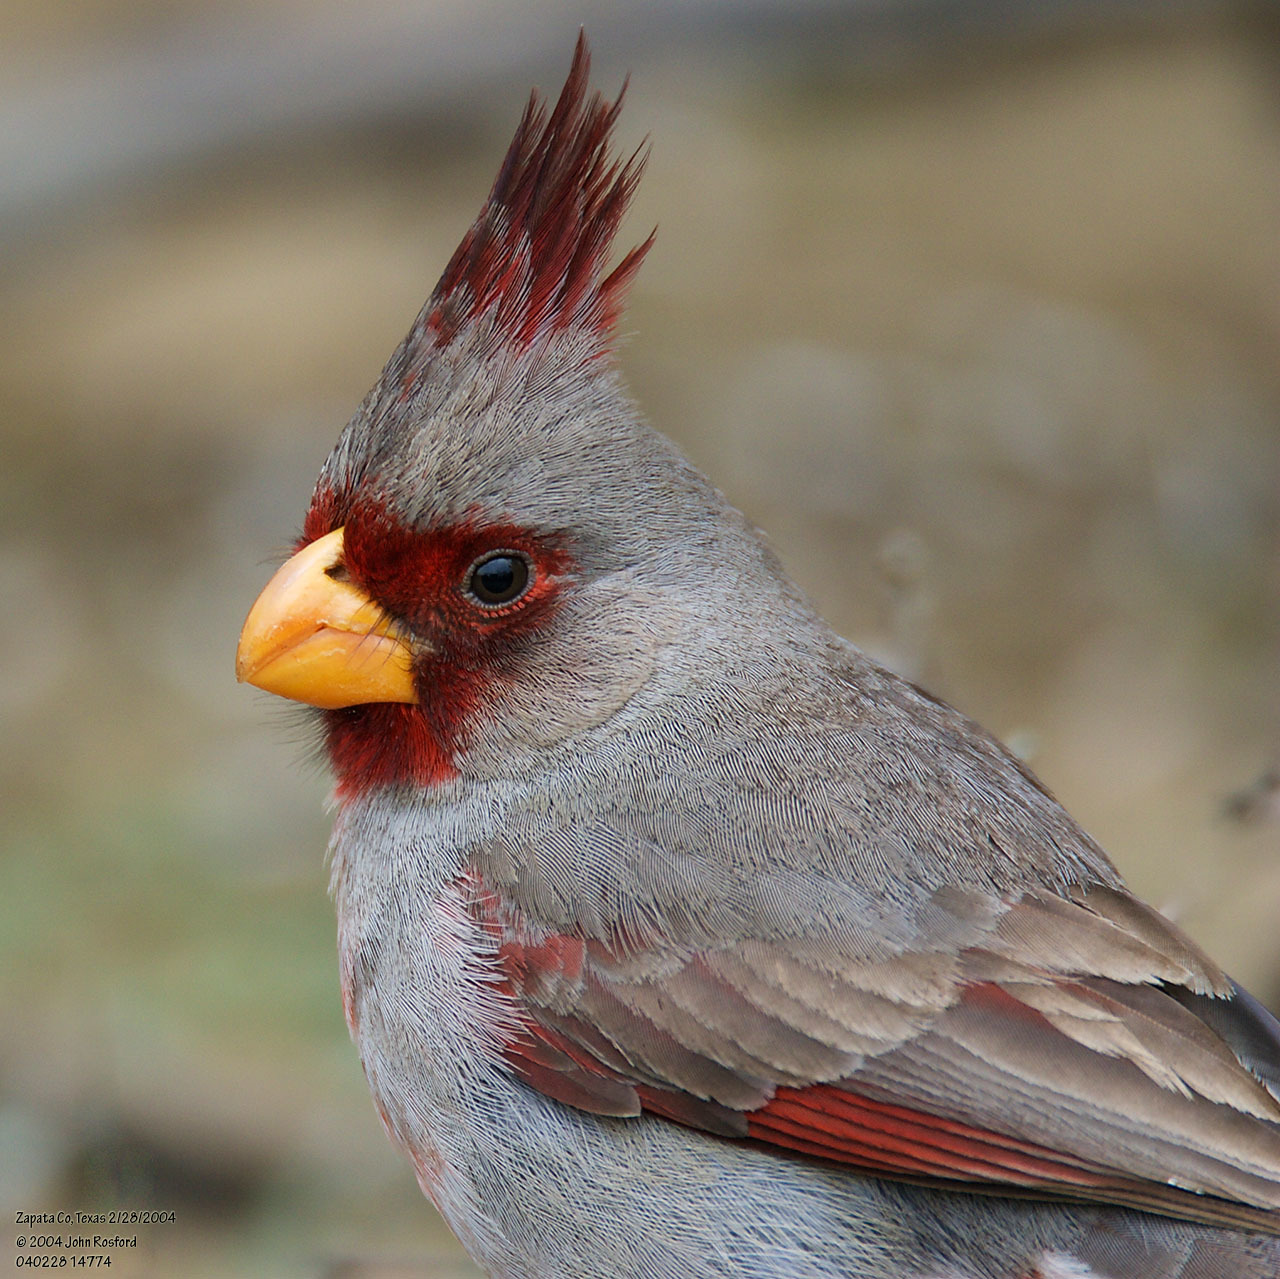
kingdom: Animalia
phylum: Chordata
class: Aves
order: Passeriformes
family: Cardinalidae
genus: Cardinalis
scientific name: Cardinalis sinuatus
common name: Pyrrhuloxia
